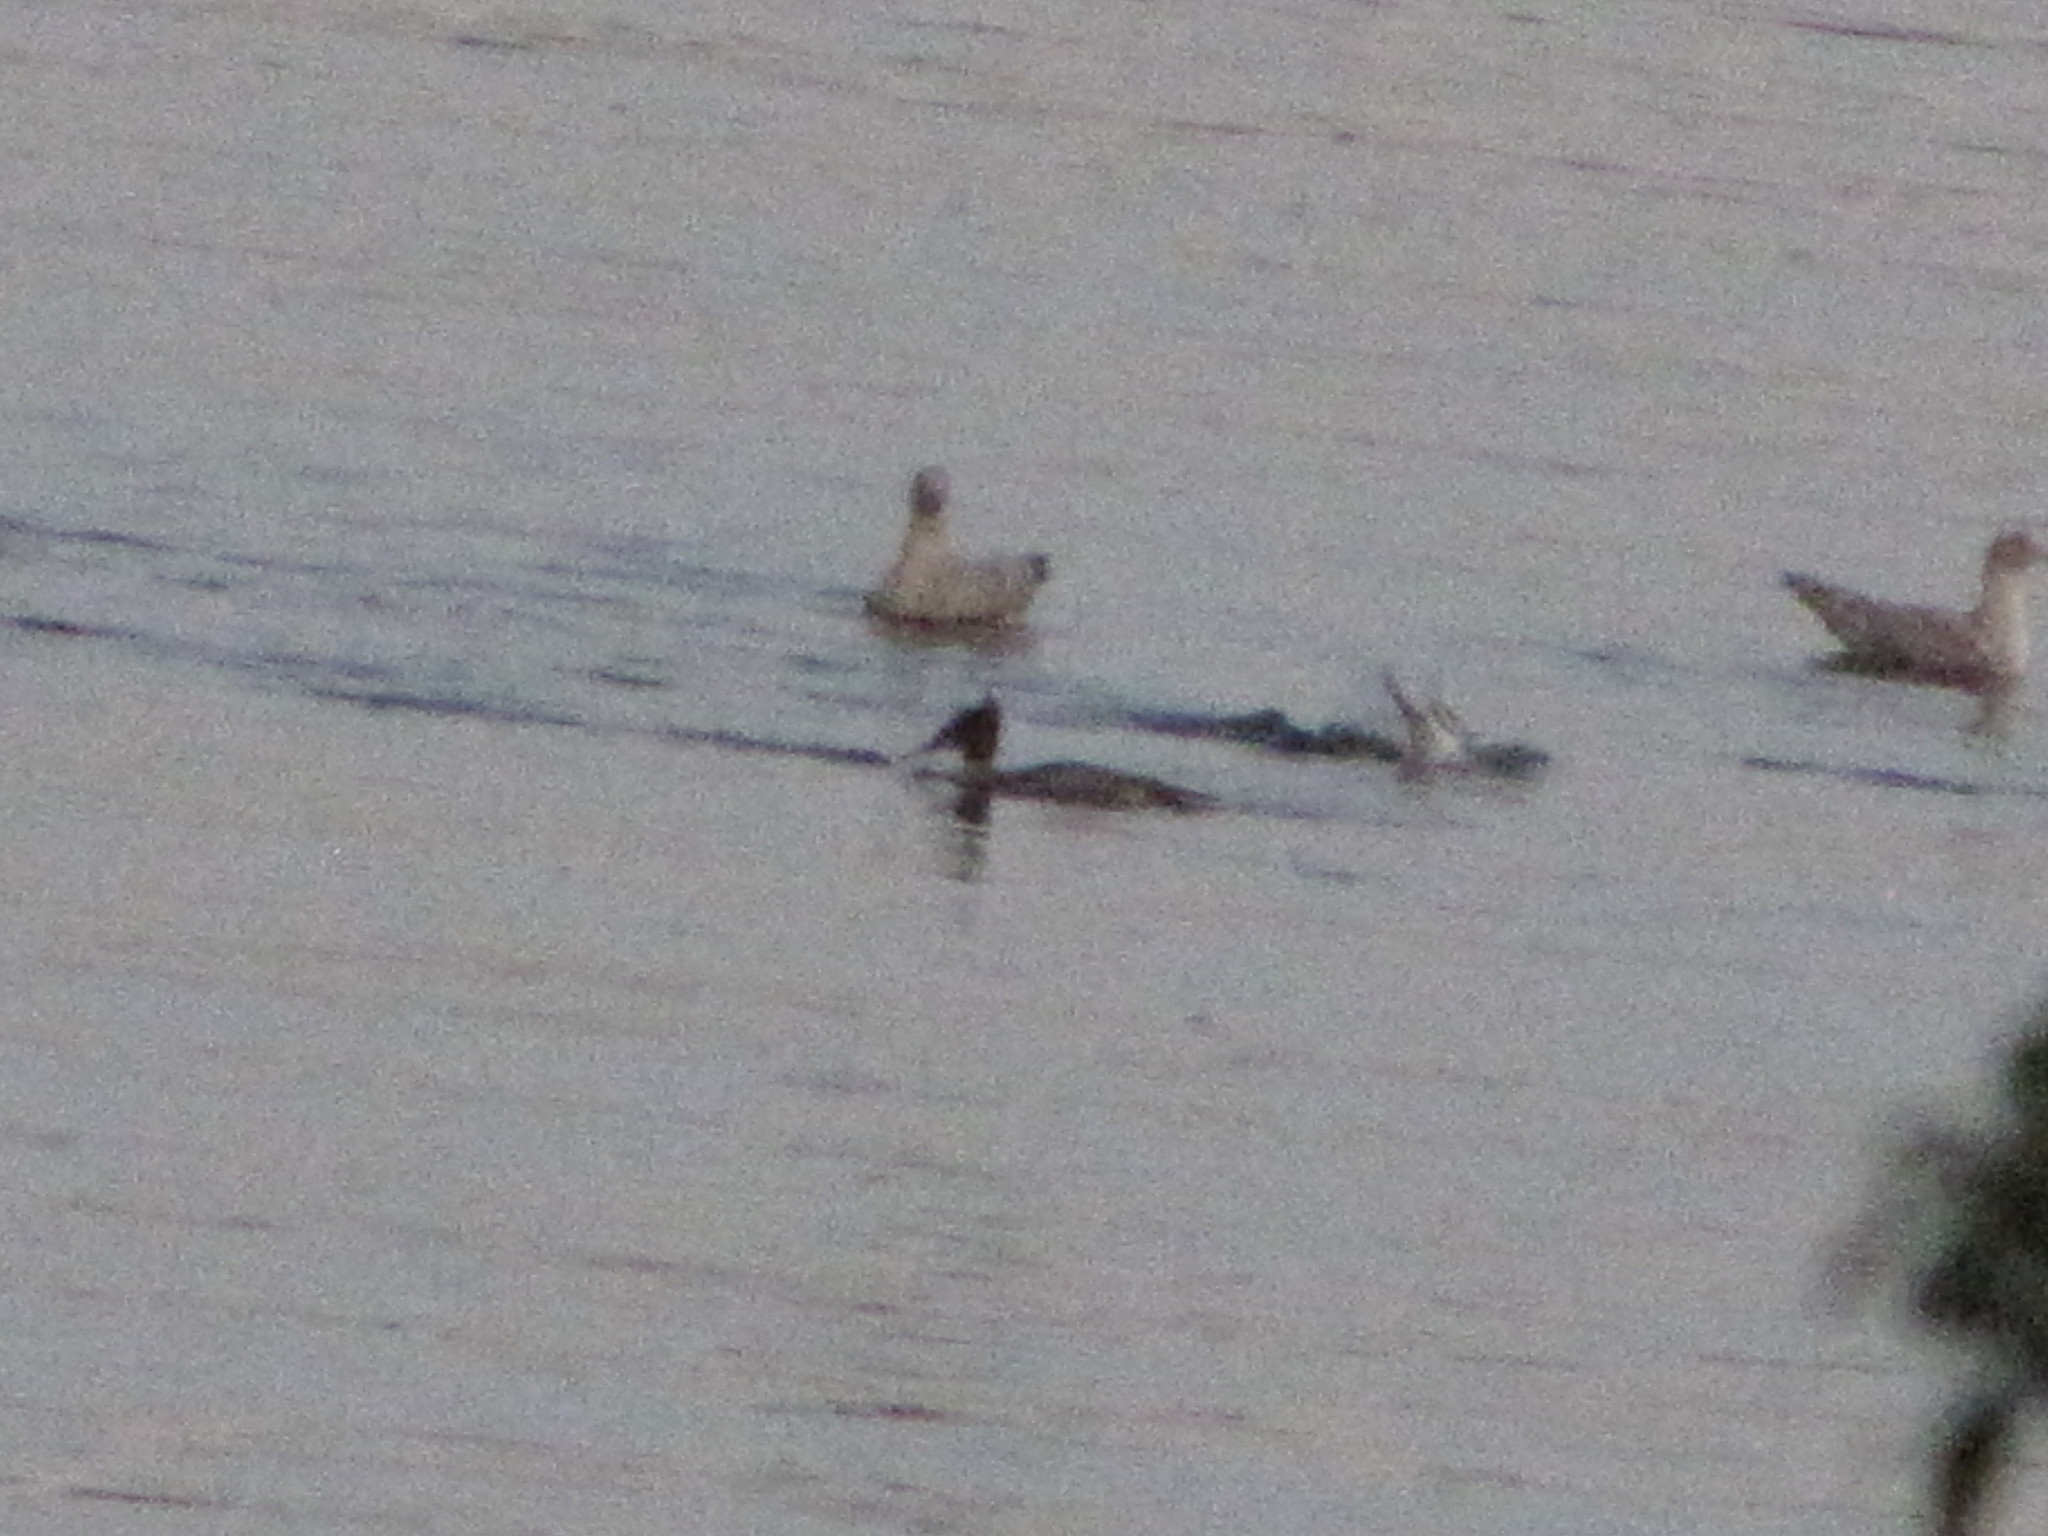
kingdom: Animalia
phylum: Chordata
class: Aves
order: Anseriformes
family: Anatidae
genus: Mergus
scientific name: Mergus merganser
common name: Common merganser
